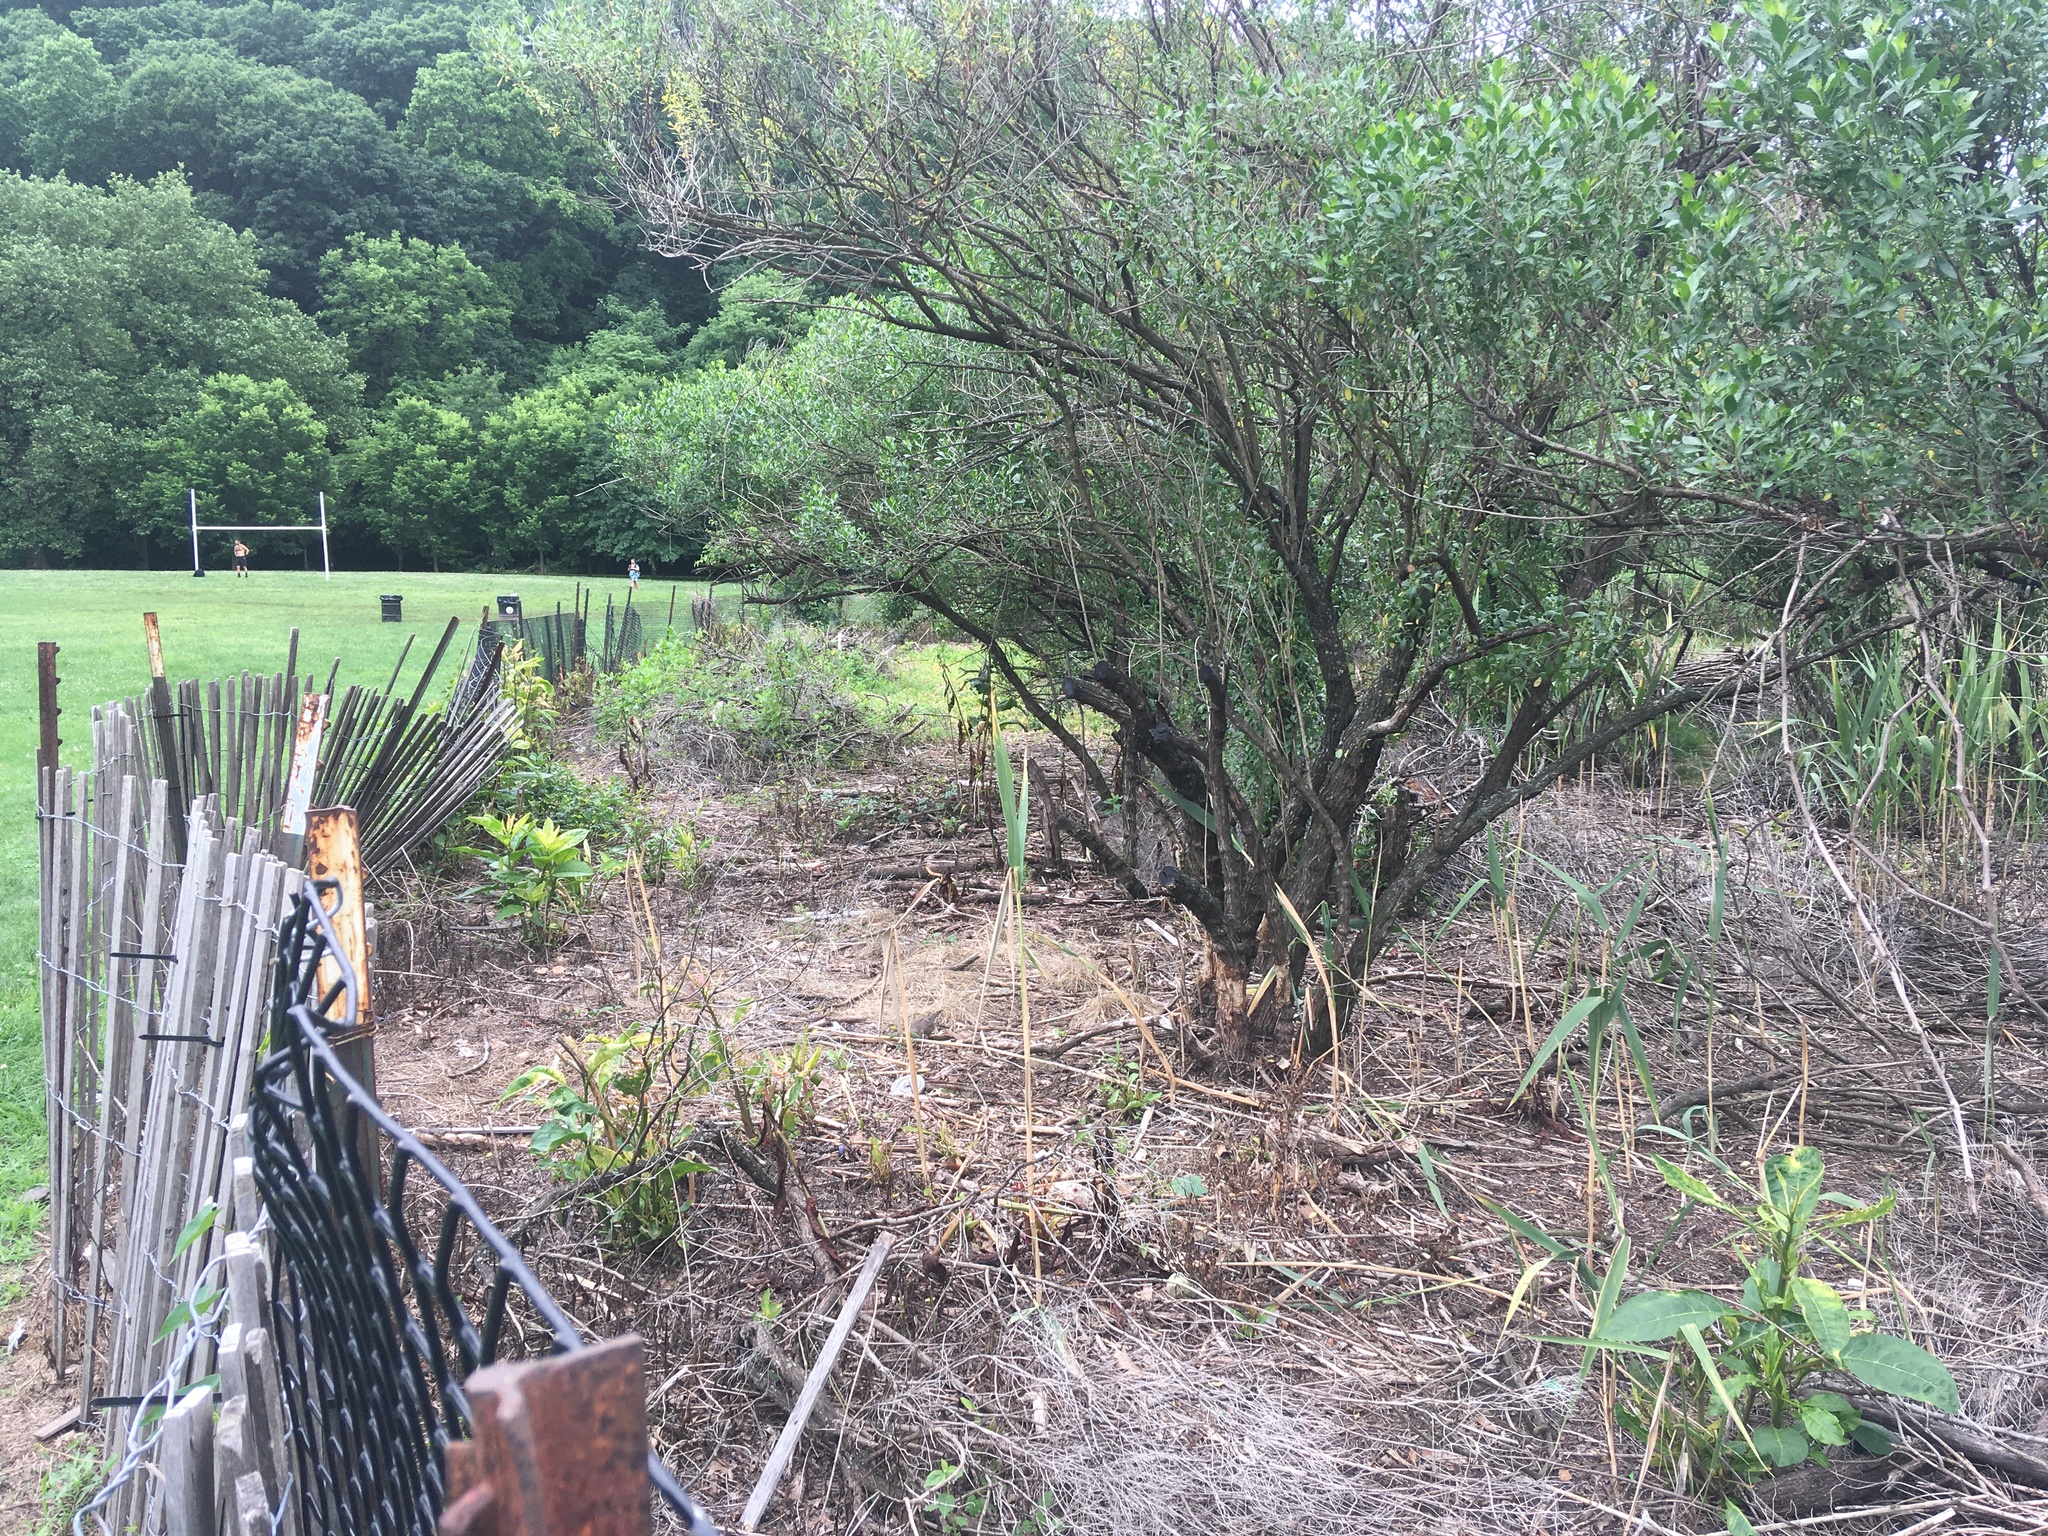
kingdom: Plantae
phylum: Tracheophyta
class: Magnoliopsida
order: Caryophyllales
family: Phytolaccaceae
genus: Phytolacca
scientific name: Phytolacca americana
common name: American pokeweed
